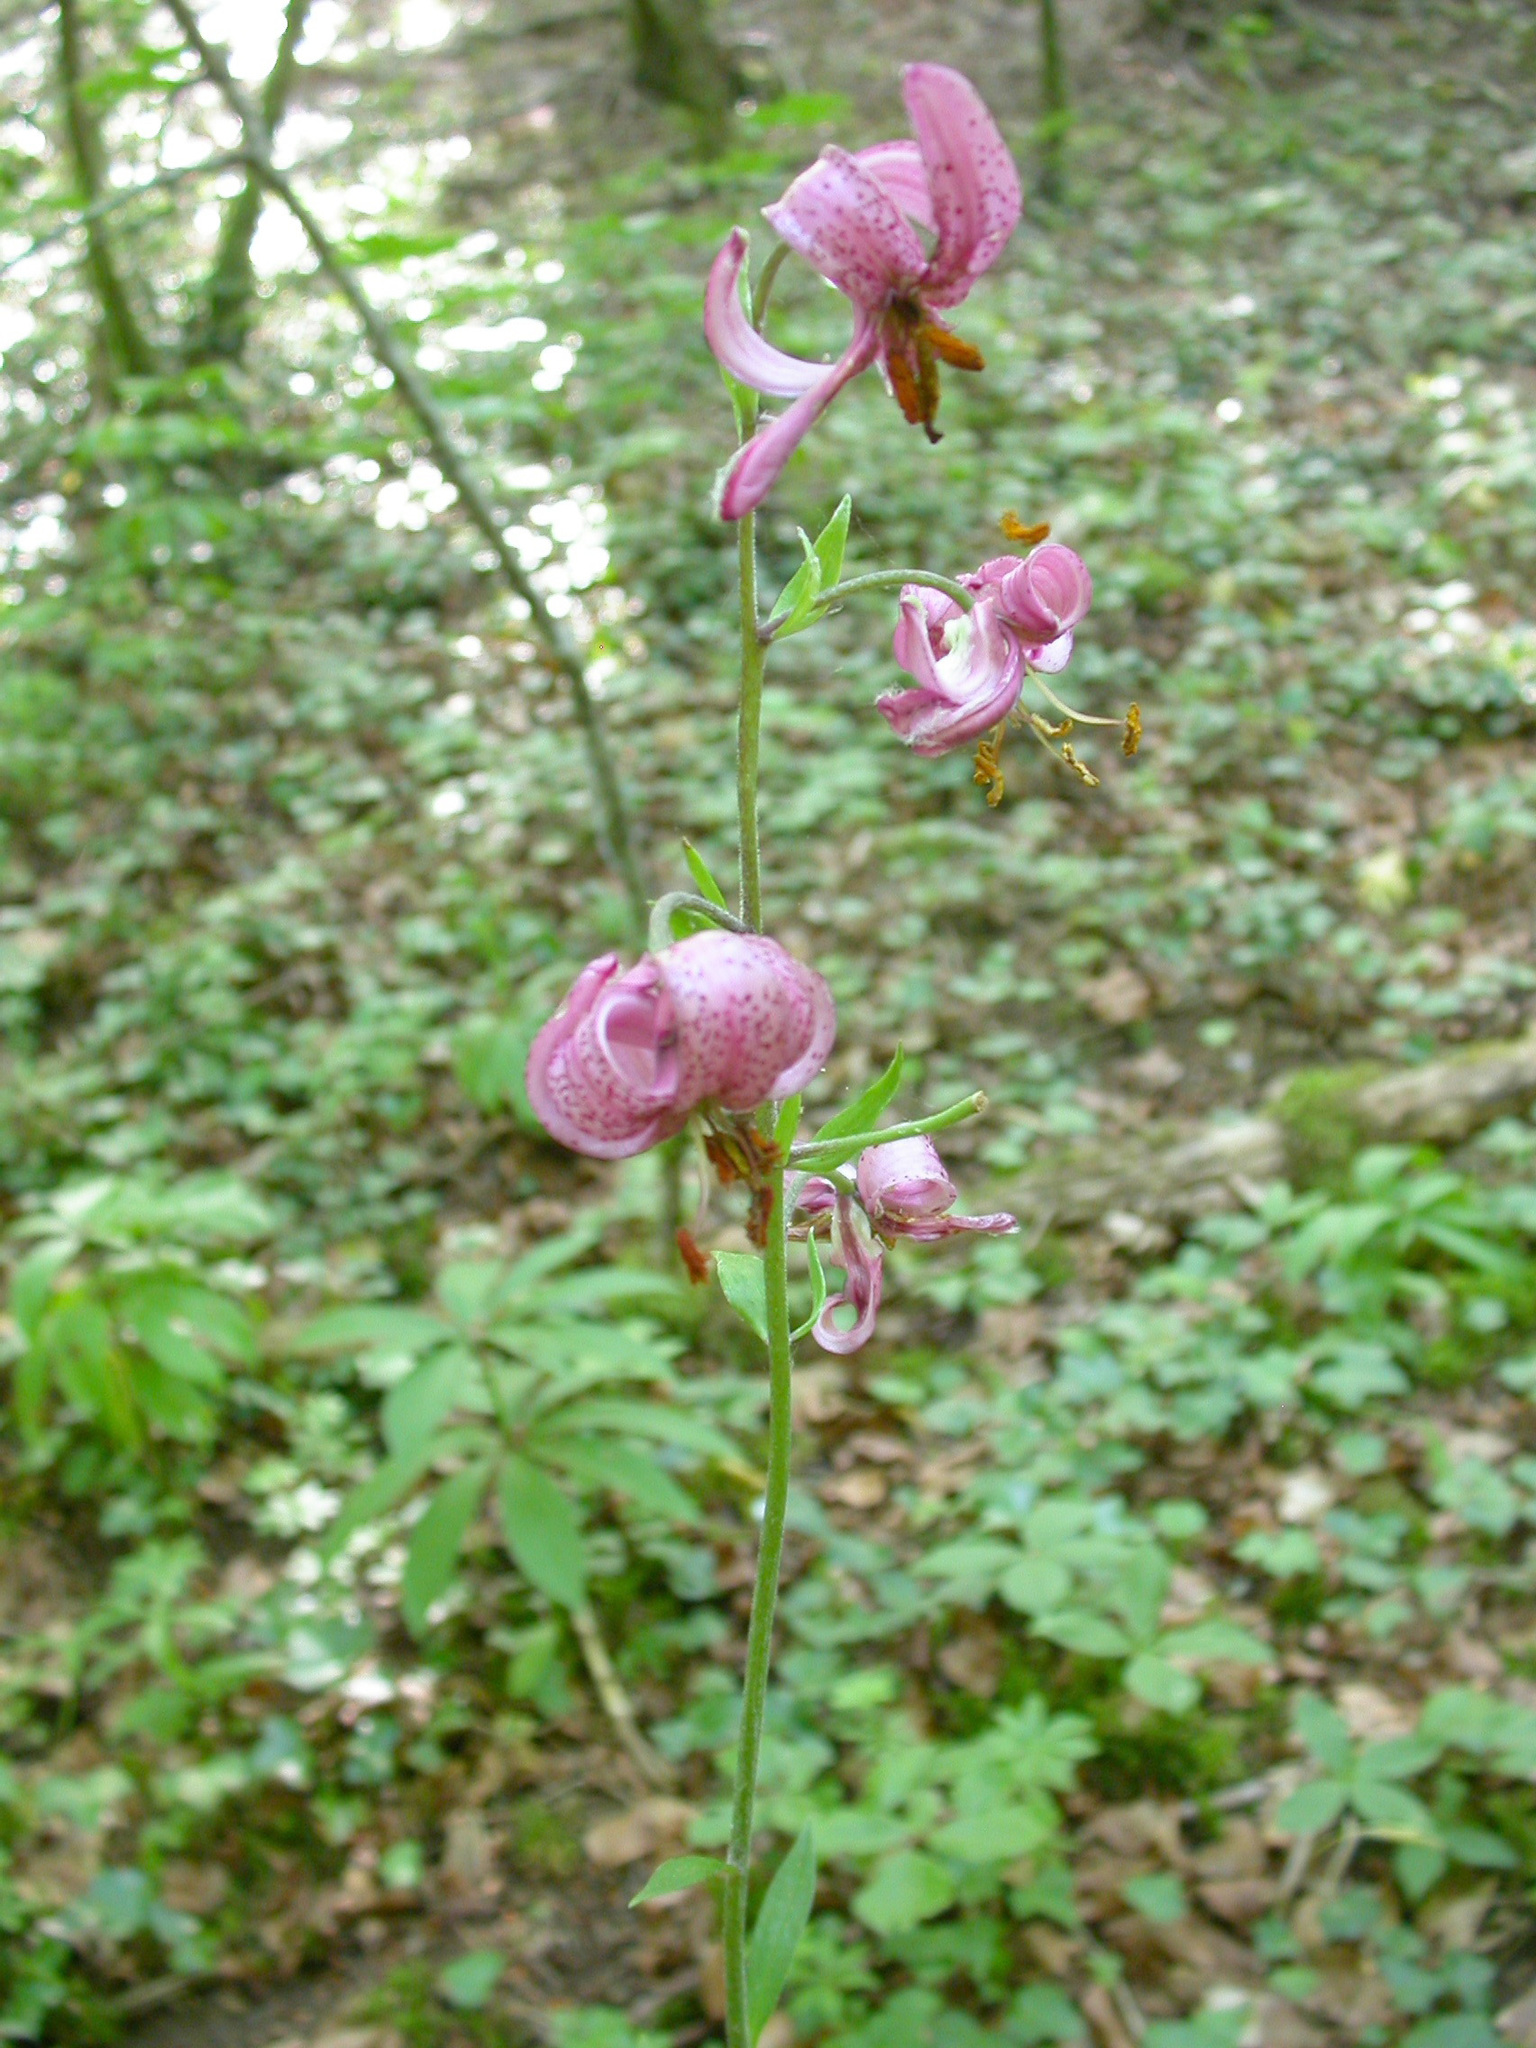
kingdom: Plantae
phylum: Tracheophyta
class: Liliopsida
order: Liliales
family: Liliaceae
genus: Lilium
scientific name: Lilium martagon
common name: Martagon lily
